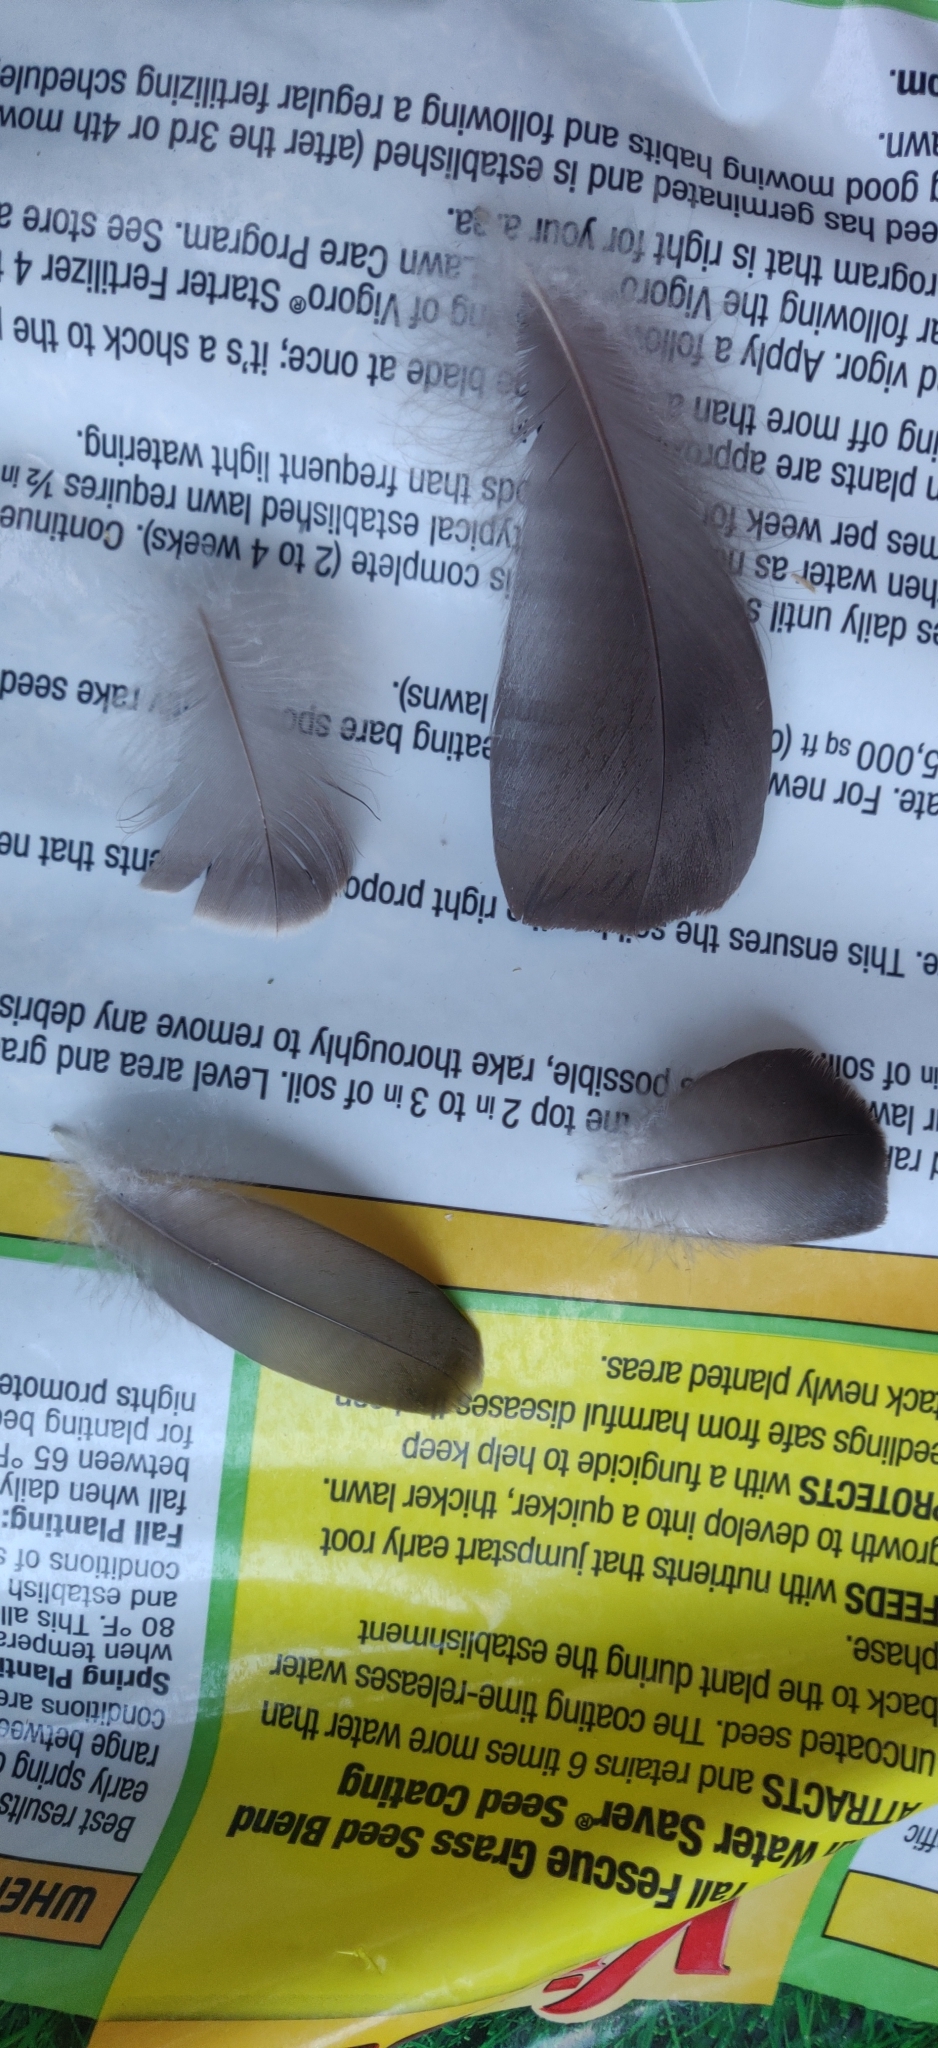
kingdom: Animalia
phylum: Chordata
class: Aves
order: Anseriformes
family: Anatidae
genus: Branta
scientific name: Branta canadensis
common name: Canada goose
